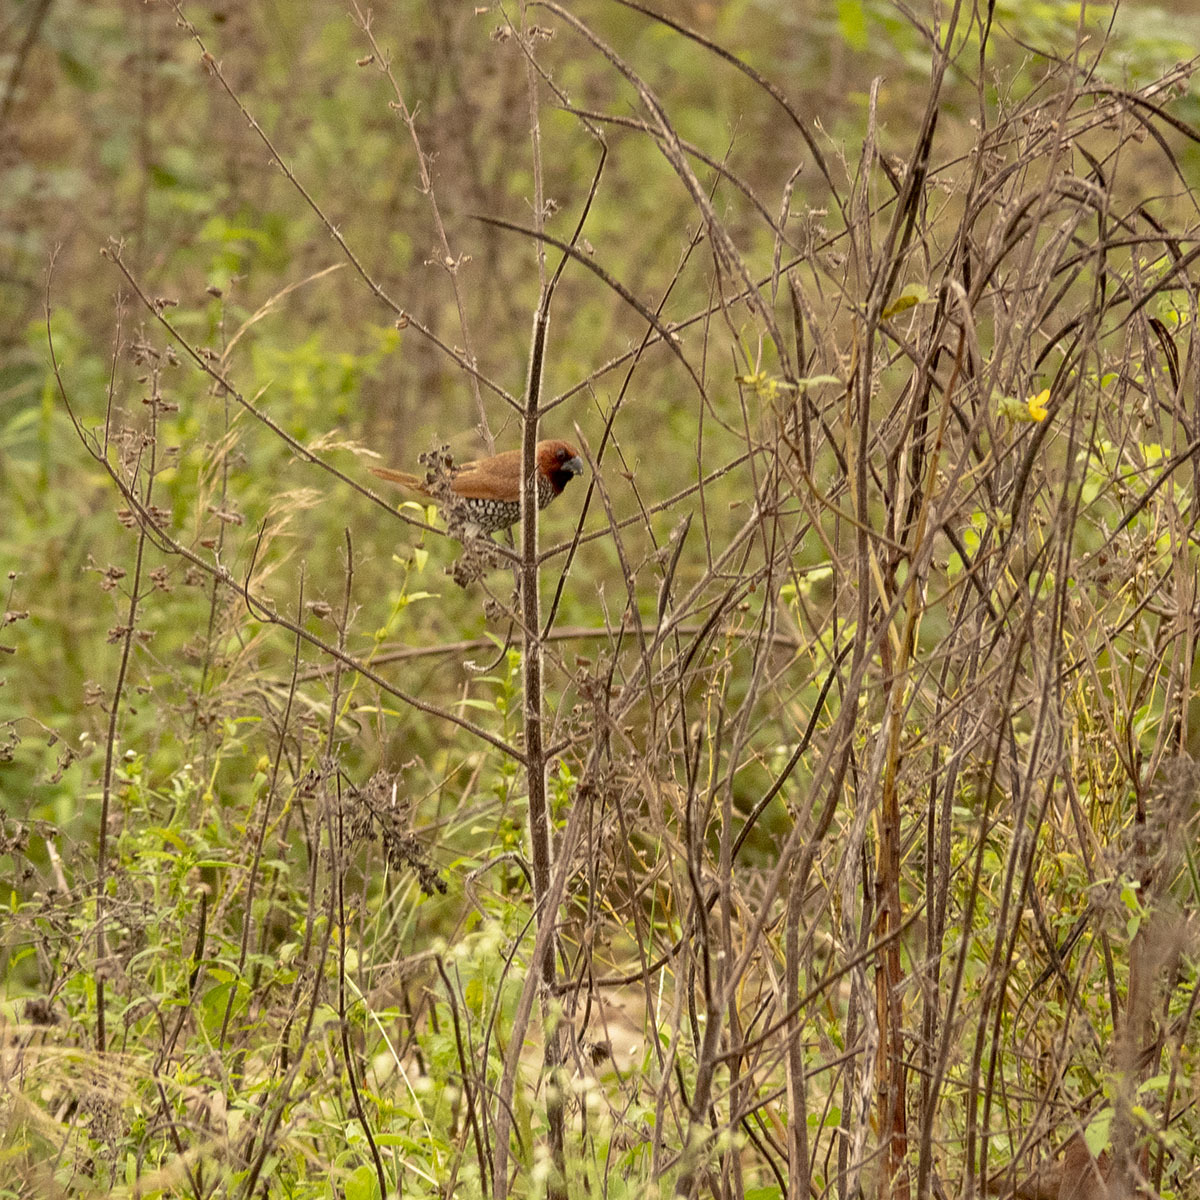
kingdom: Animalia
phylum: Chordata
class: Aves
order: Passeriformes
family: Estrildidae
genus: Lonchura
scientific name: Lonchura punctulata
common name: Scaly-breasted munia
